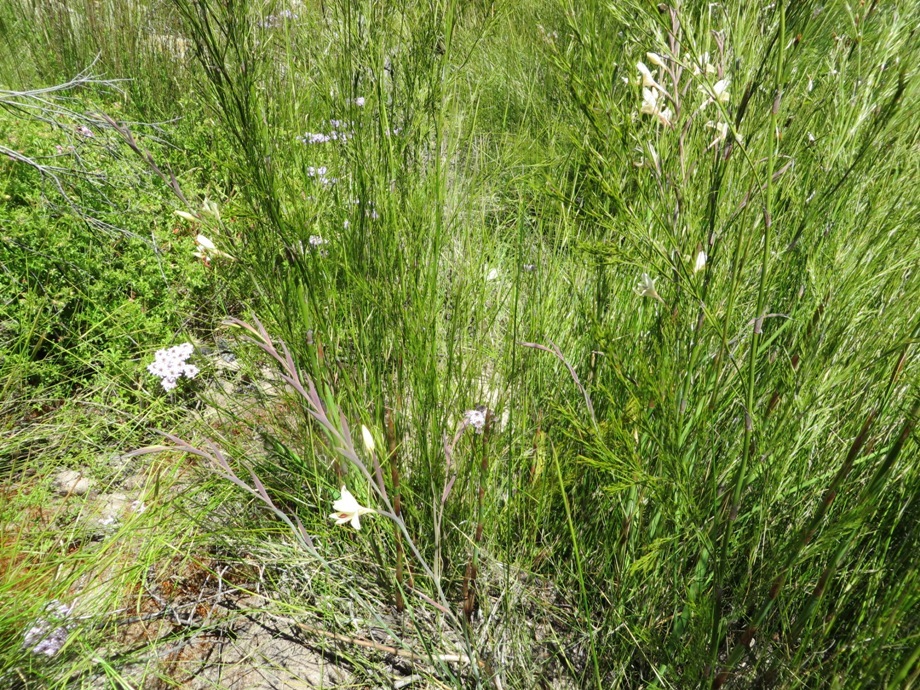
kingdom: Plantae
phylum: Tracheophyta
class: Liliopsida
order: Asparagales
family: Iridaceae
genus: Gladiolus
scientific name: Gladiolus angustus
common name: Painted-lady
